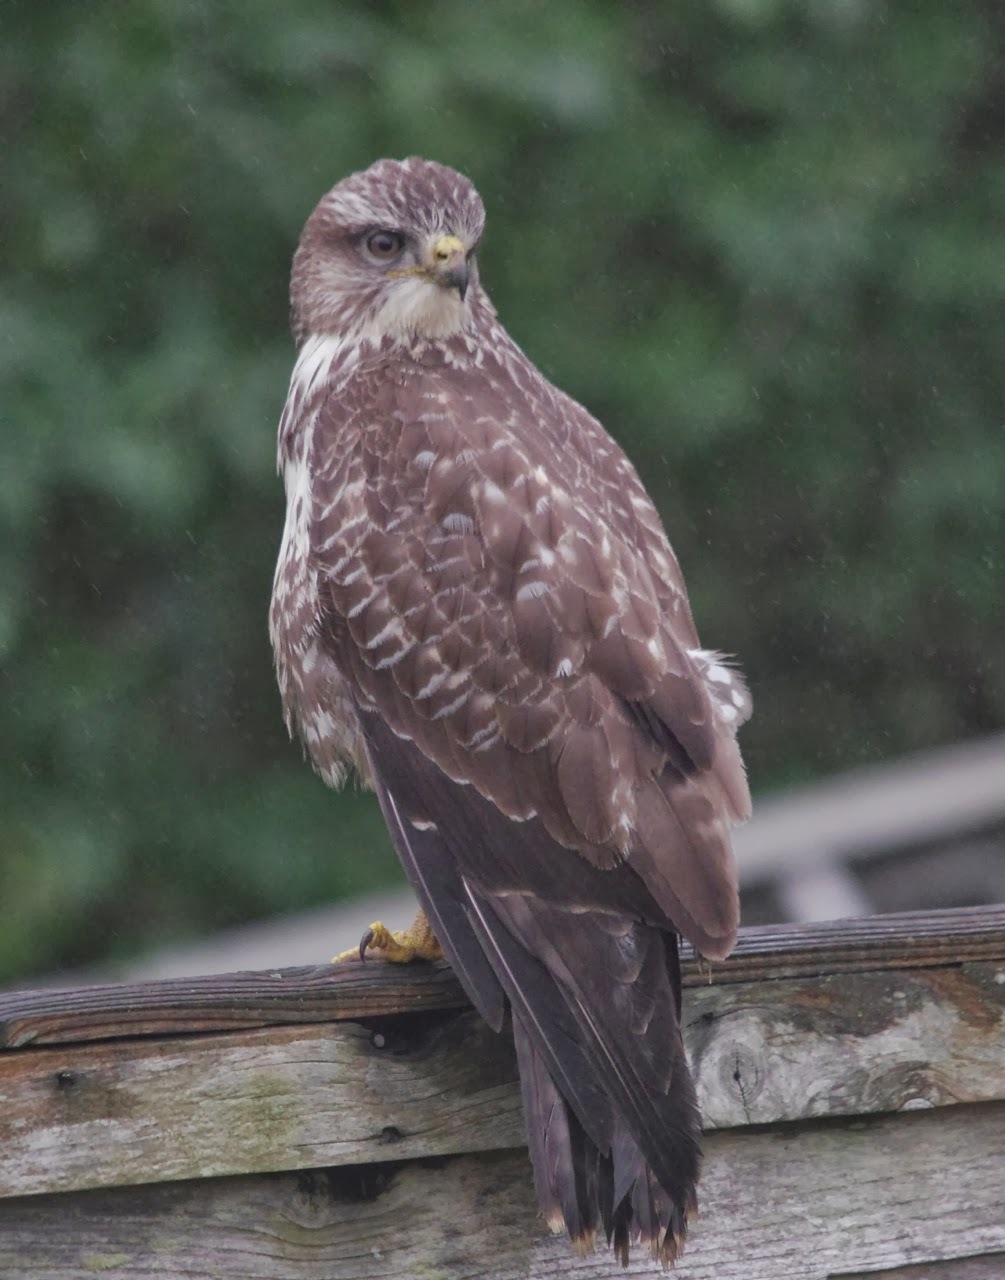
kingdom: Animalia
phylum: Chordata
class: Aves
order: Accipitriformes
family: Accipitridae
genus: Buteo
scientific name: Buteo buteo
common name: Common buzzard
